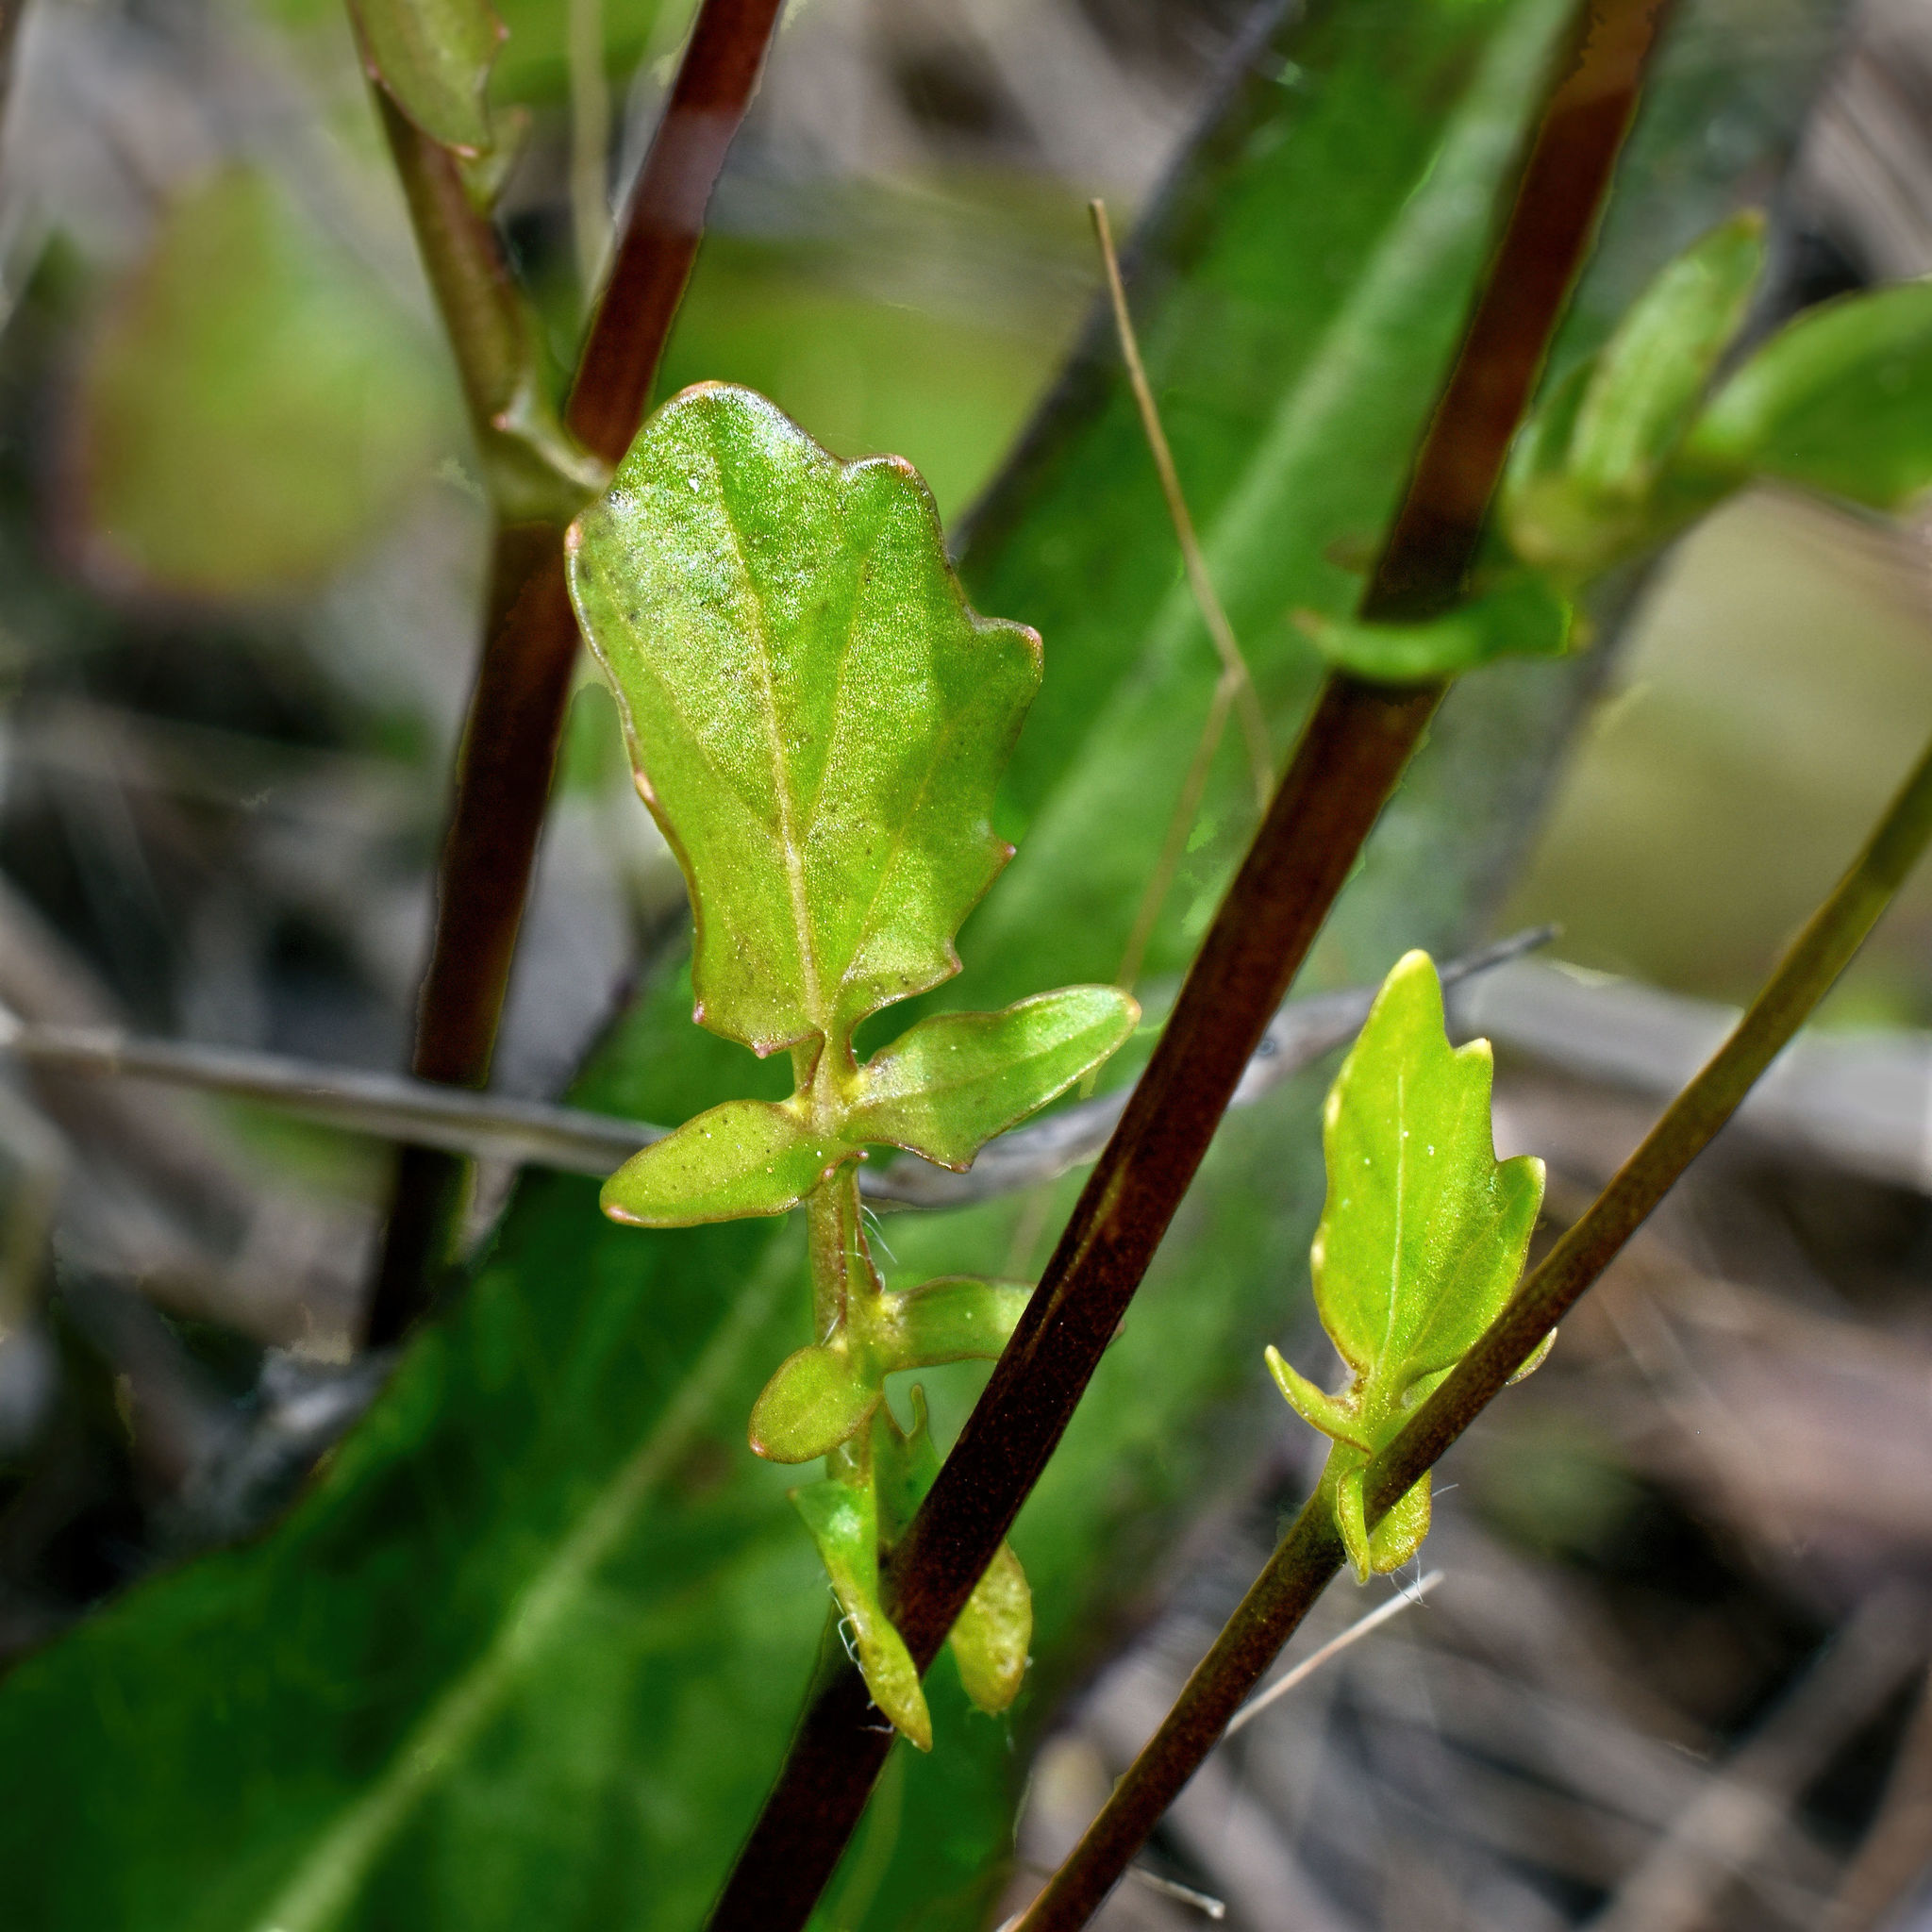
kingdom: Plantae
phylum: Tracheophyta
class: Magnoliopsida
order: Brassicales
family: Brassicaceae
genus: Barbarea
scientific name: Barbarea orthoceras
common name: American wintercress
